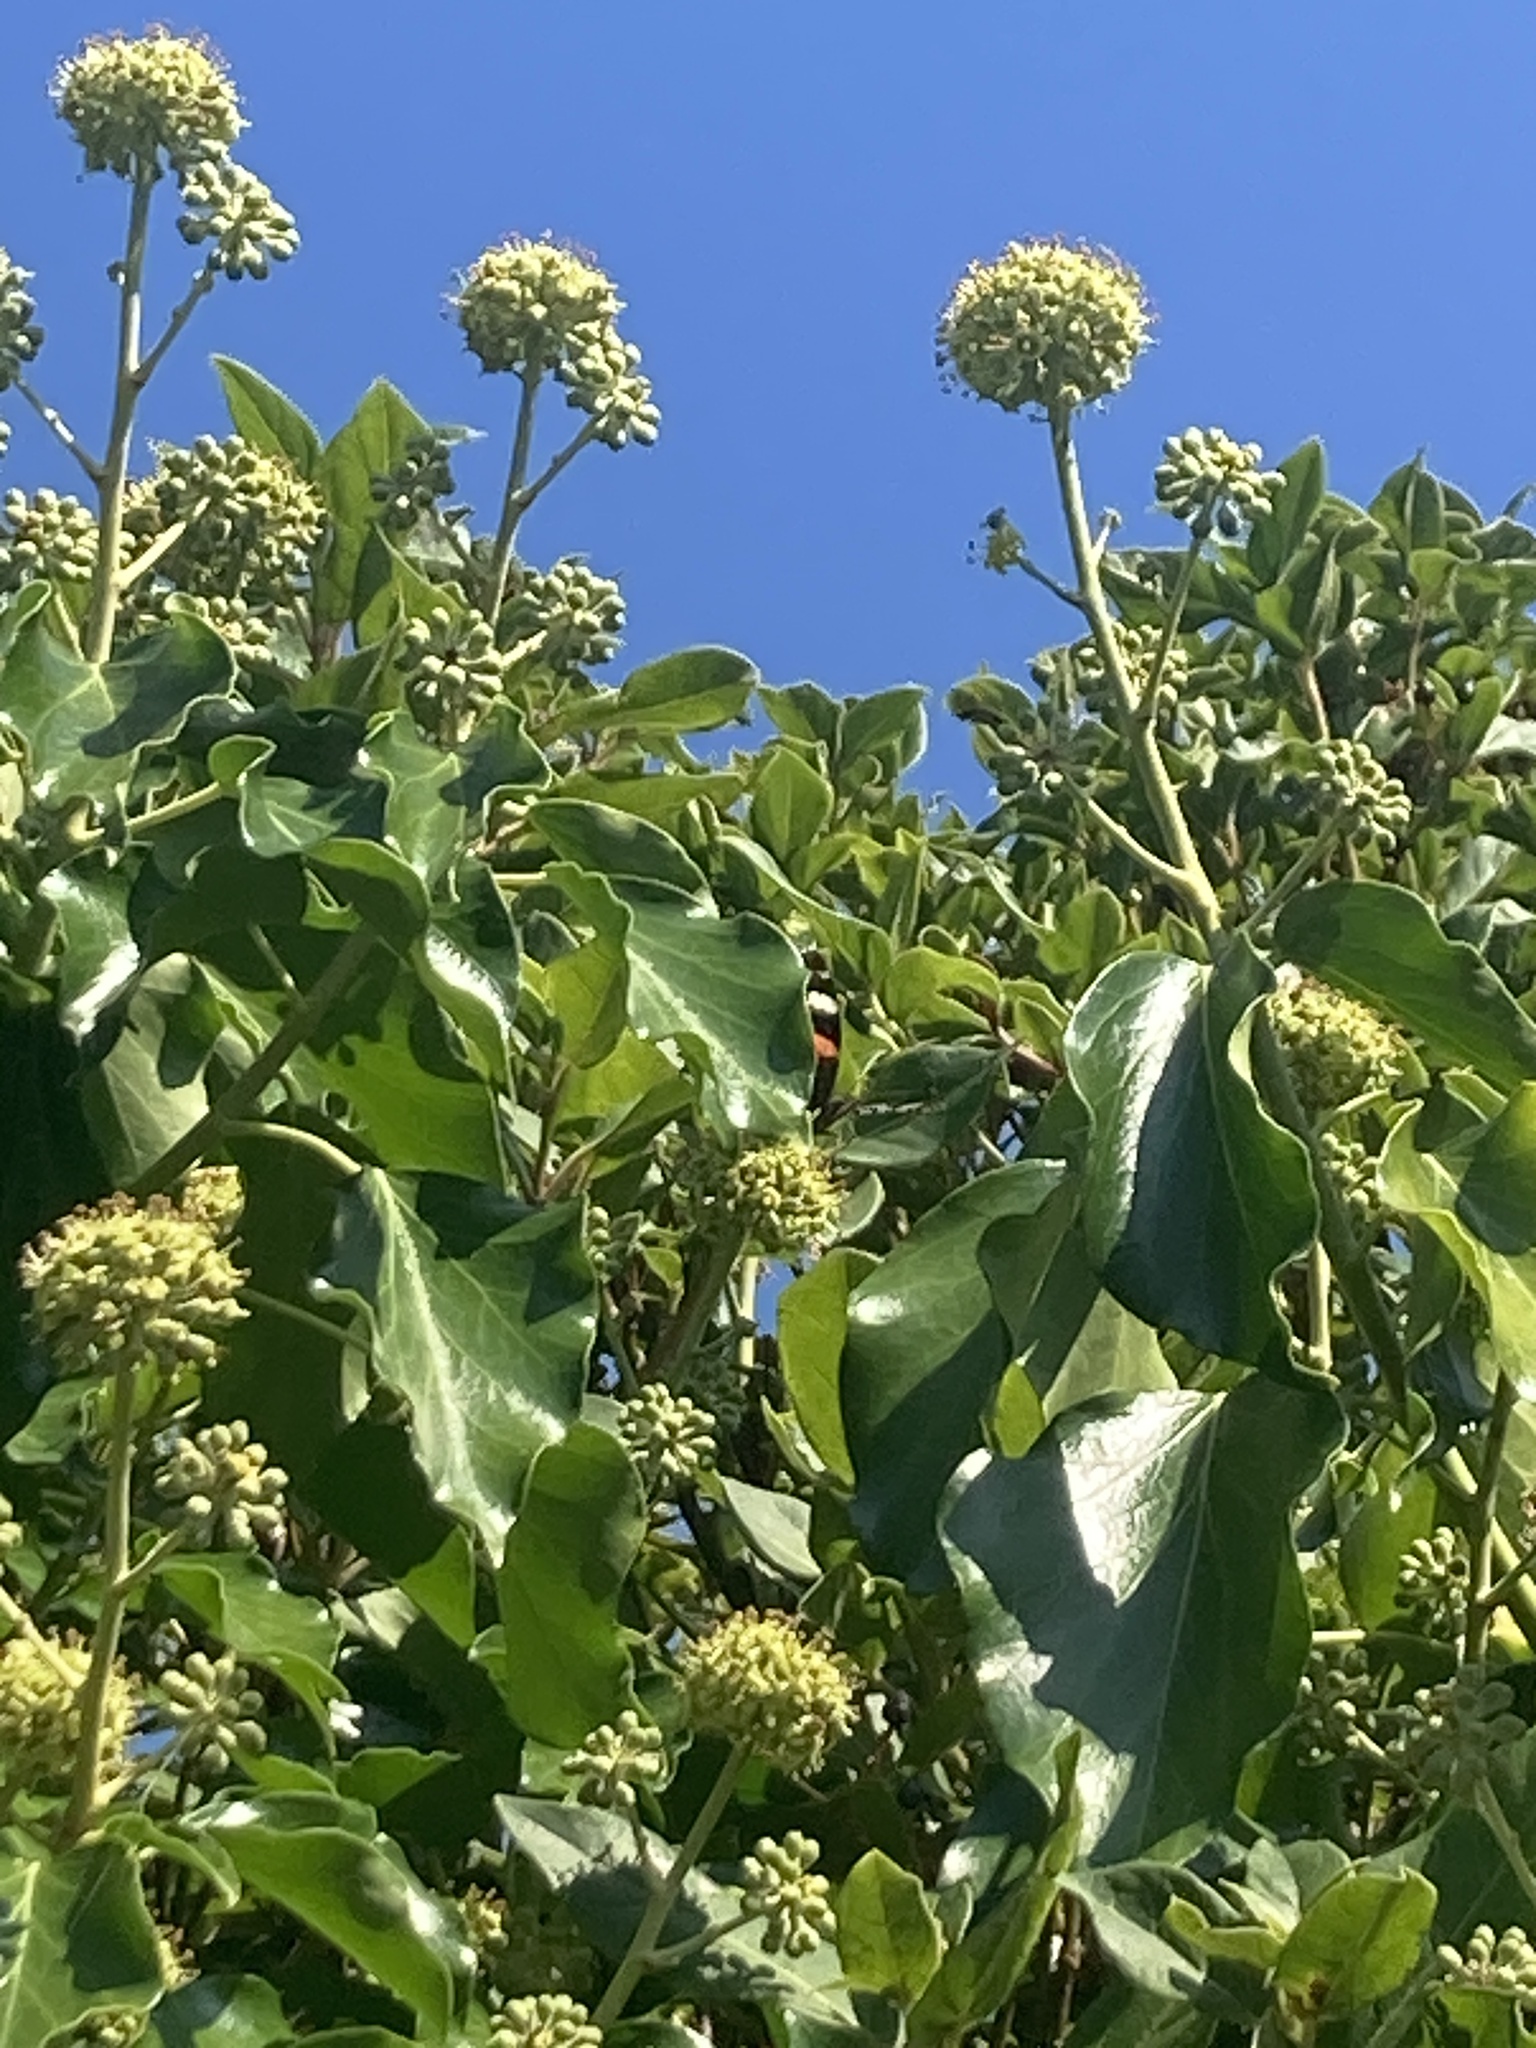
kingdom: Animalia
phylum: Arthropoda
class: Insecta
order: Lepidoptera
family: Nymphalidae
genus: Vanessa
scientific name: Vanessa atalanta
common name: Red admiral
